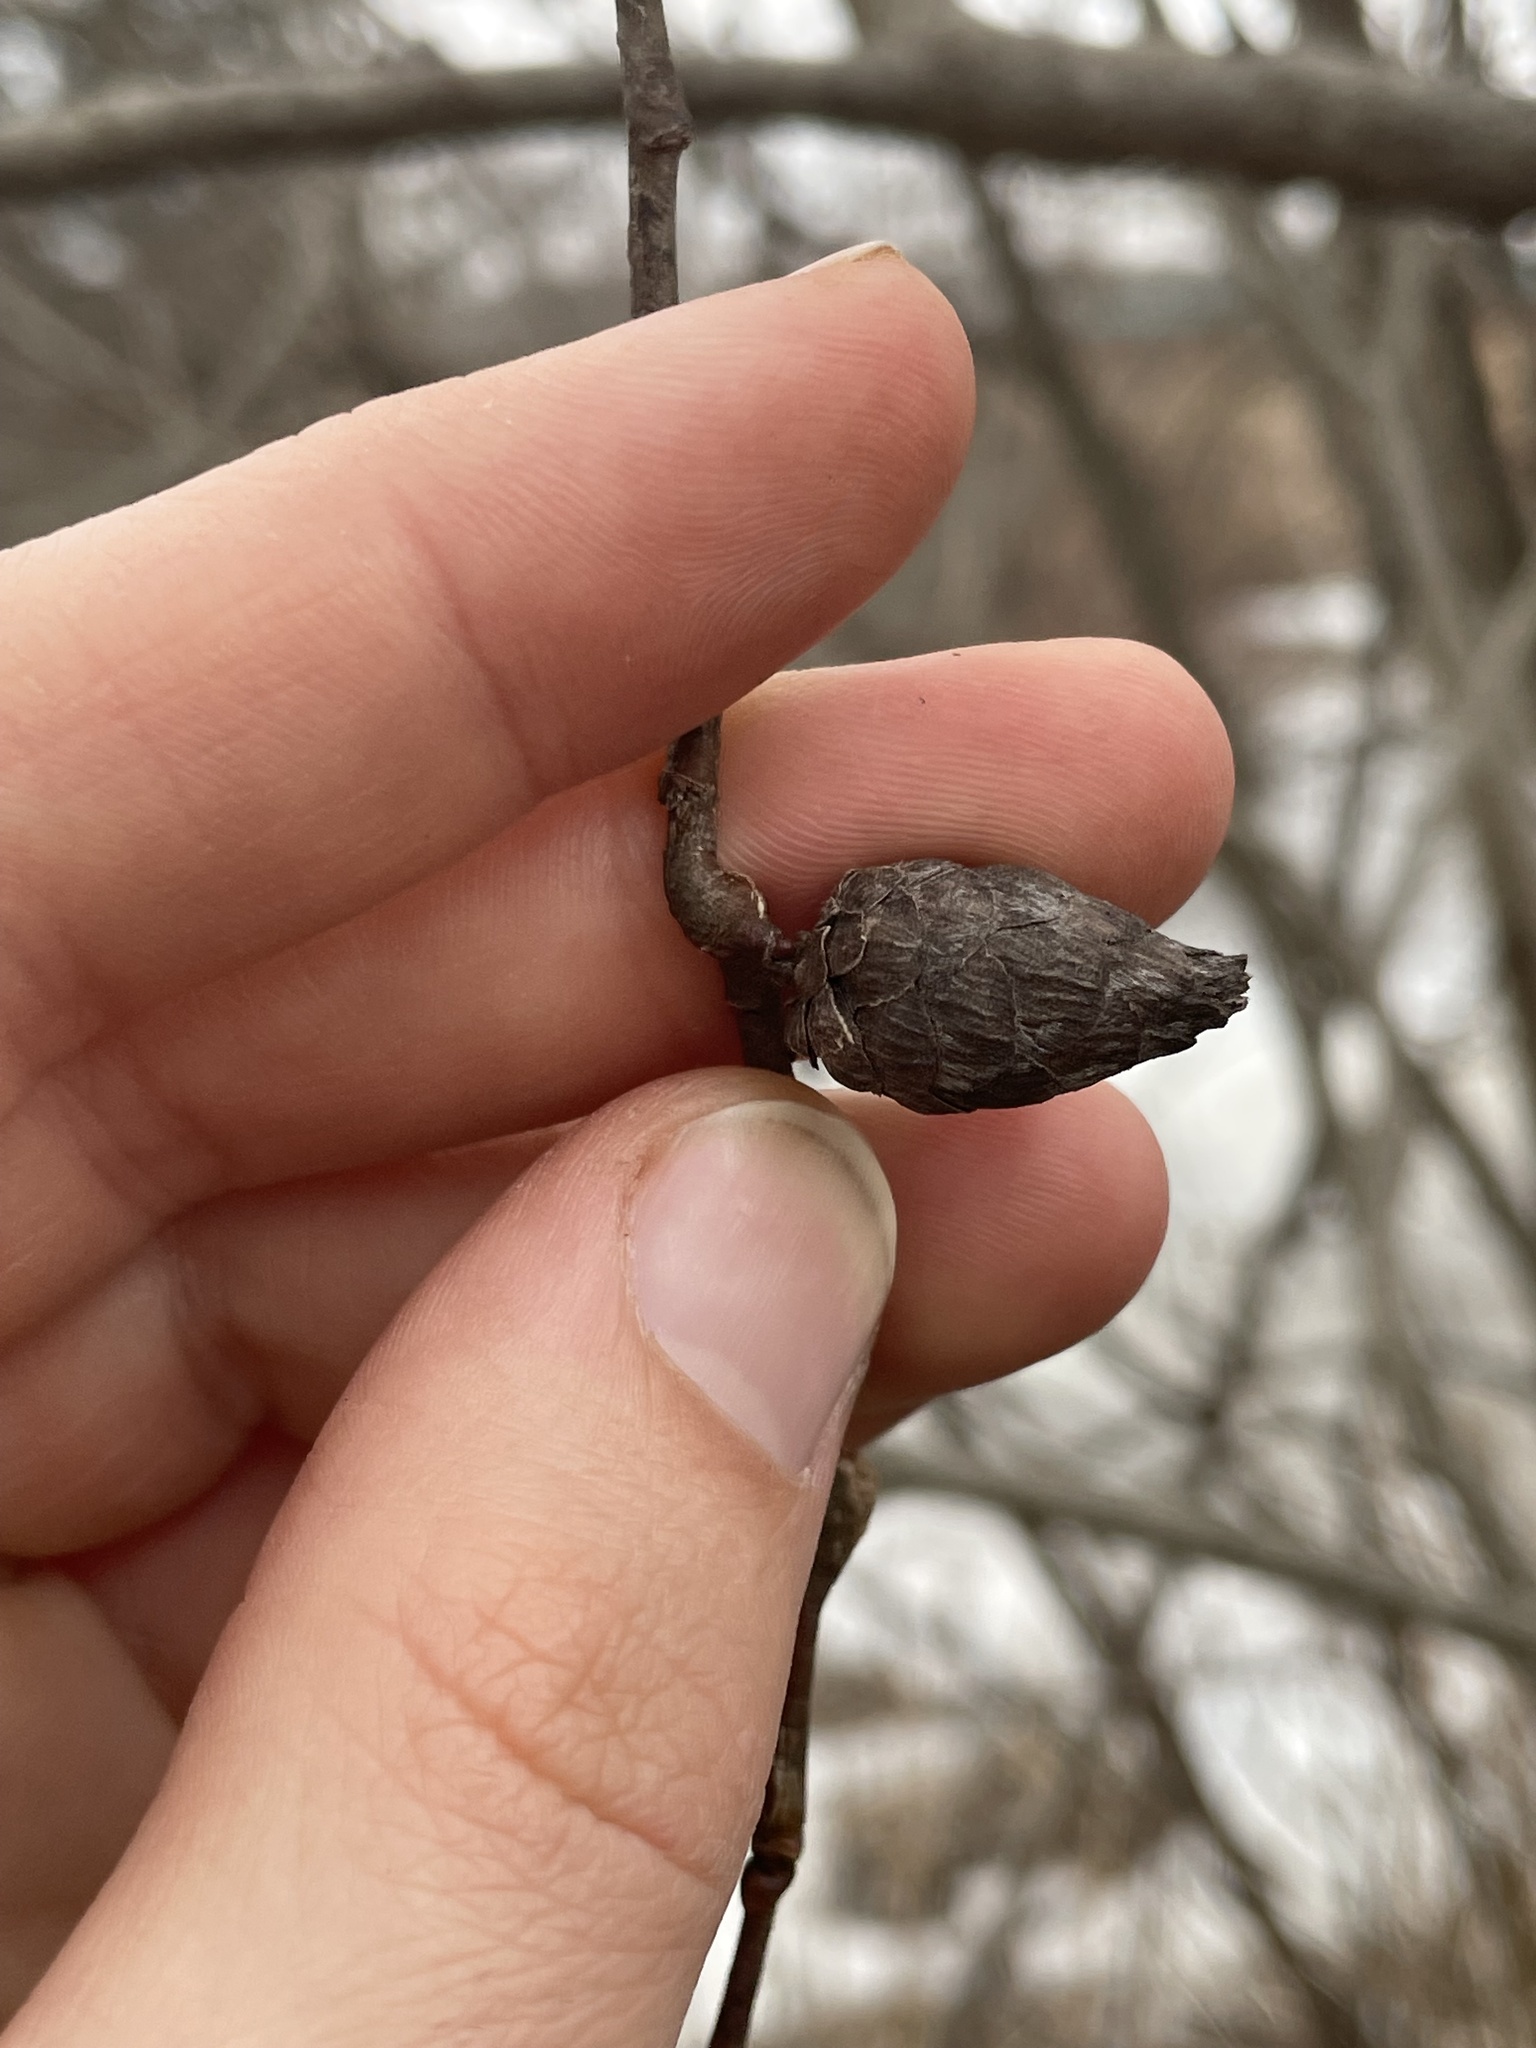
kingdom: Animalia
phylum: Arthropoda
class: Insecta
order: Diptera
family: Cecidomyiidae
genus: Rabdophaga
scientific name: Rabdophaga strobiloides
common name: Willow pinecone gall midge
